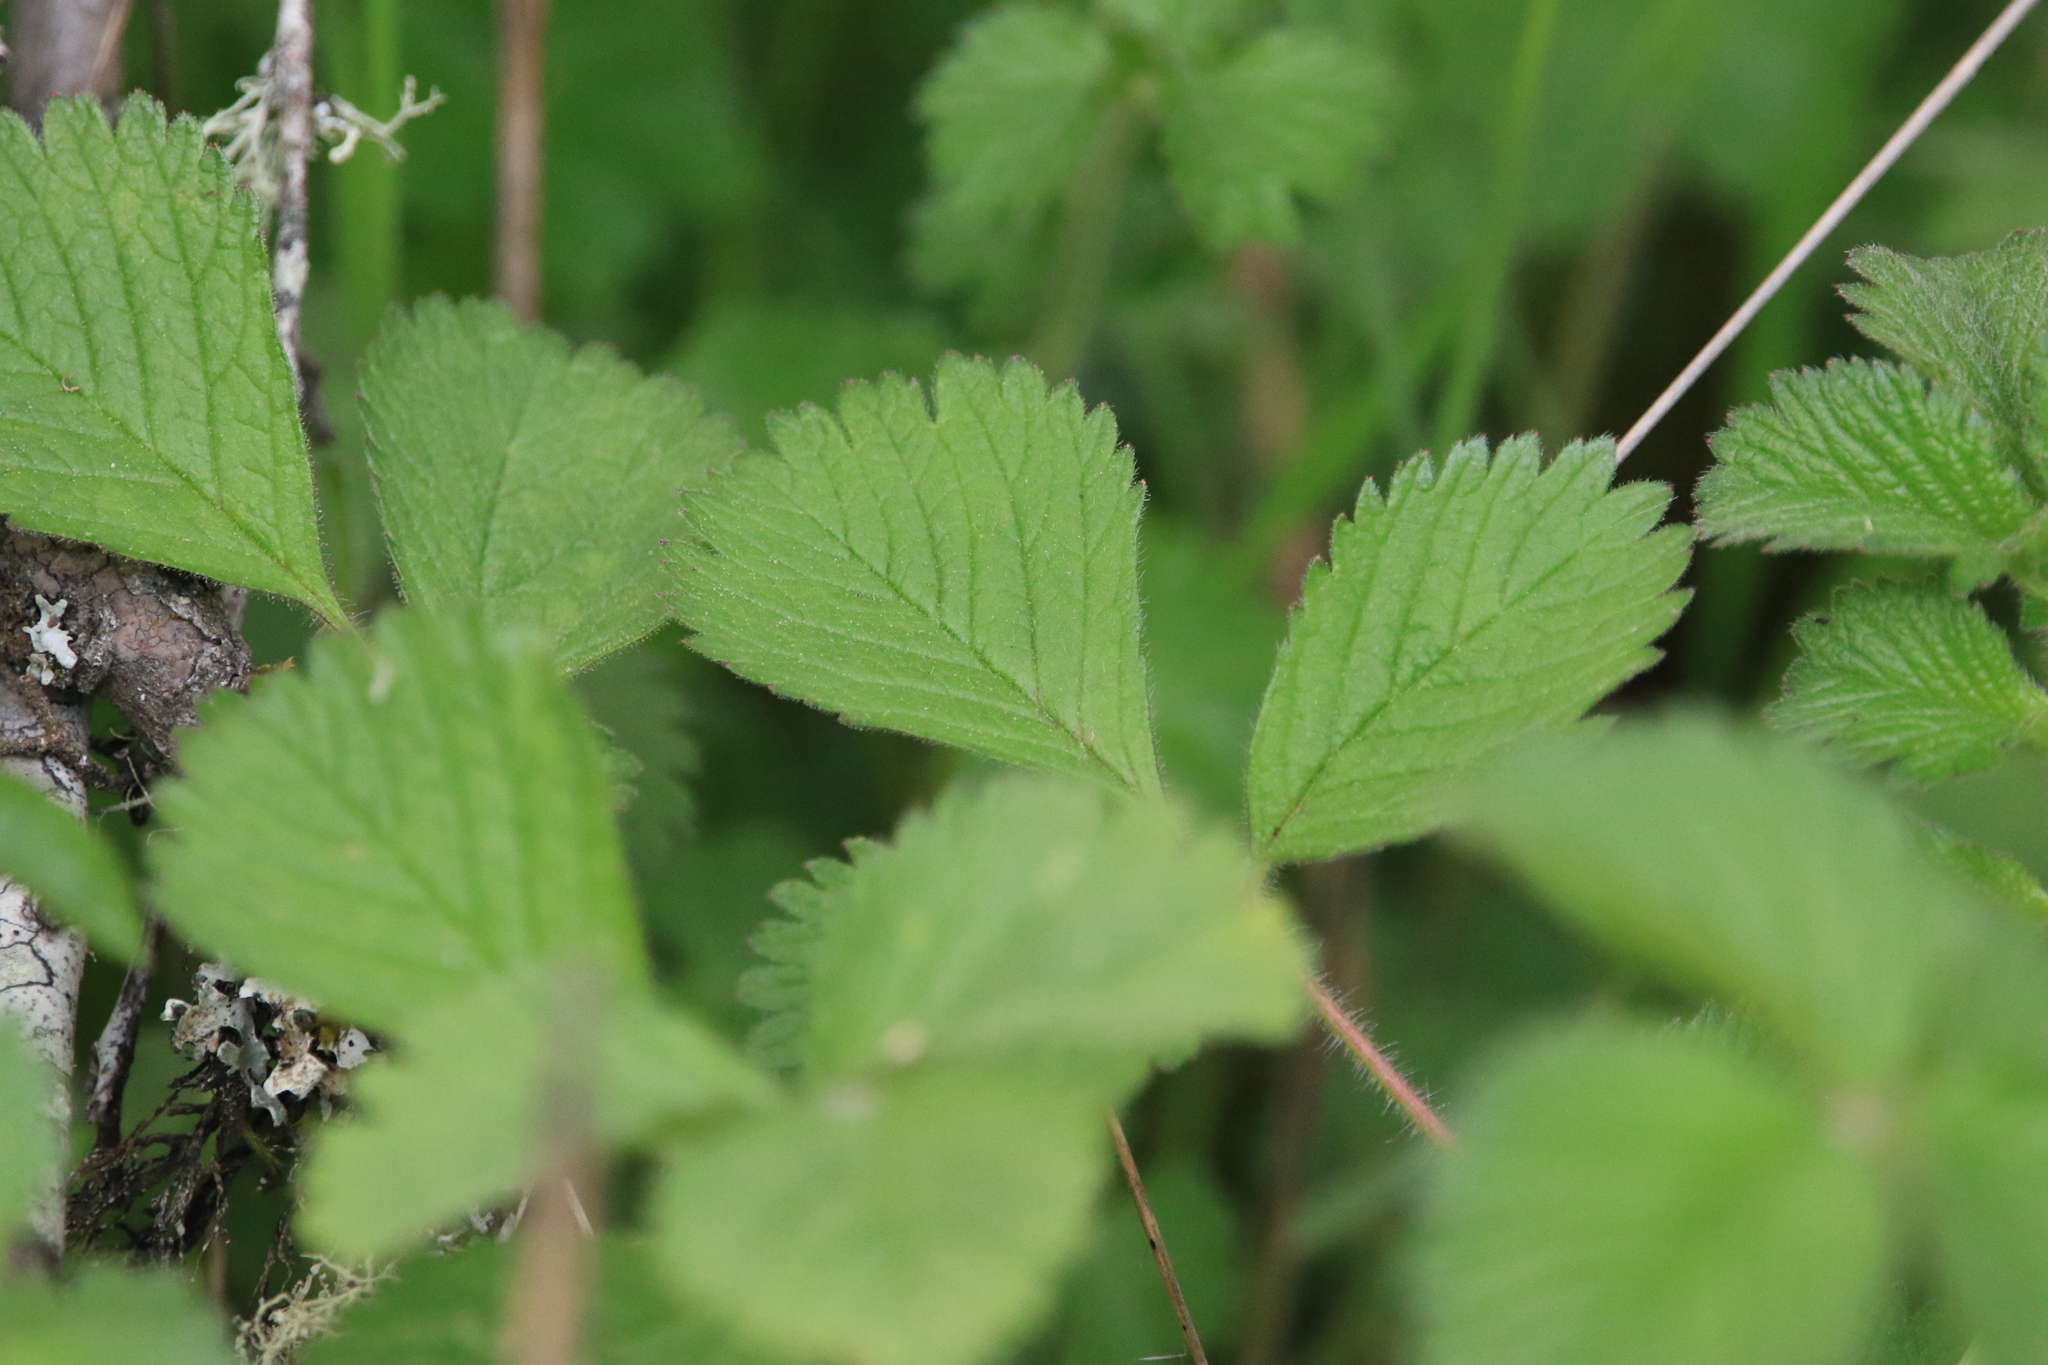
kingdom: Plantae
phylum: Tracheophyta
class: Magnoliopsida
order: Rosales
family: Rosaceae
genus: Drymocallis
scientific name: Drymocallis glandulosa
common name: Sticky cinquefoil
